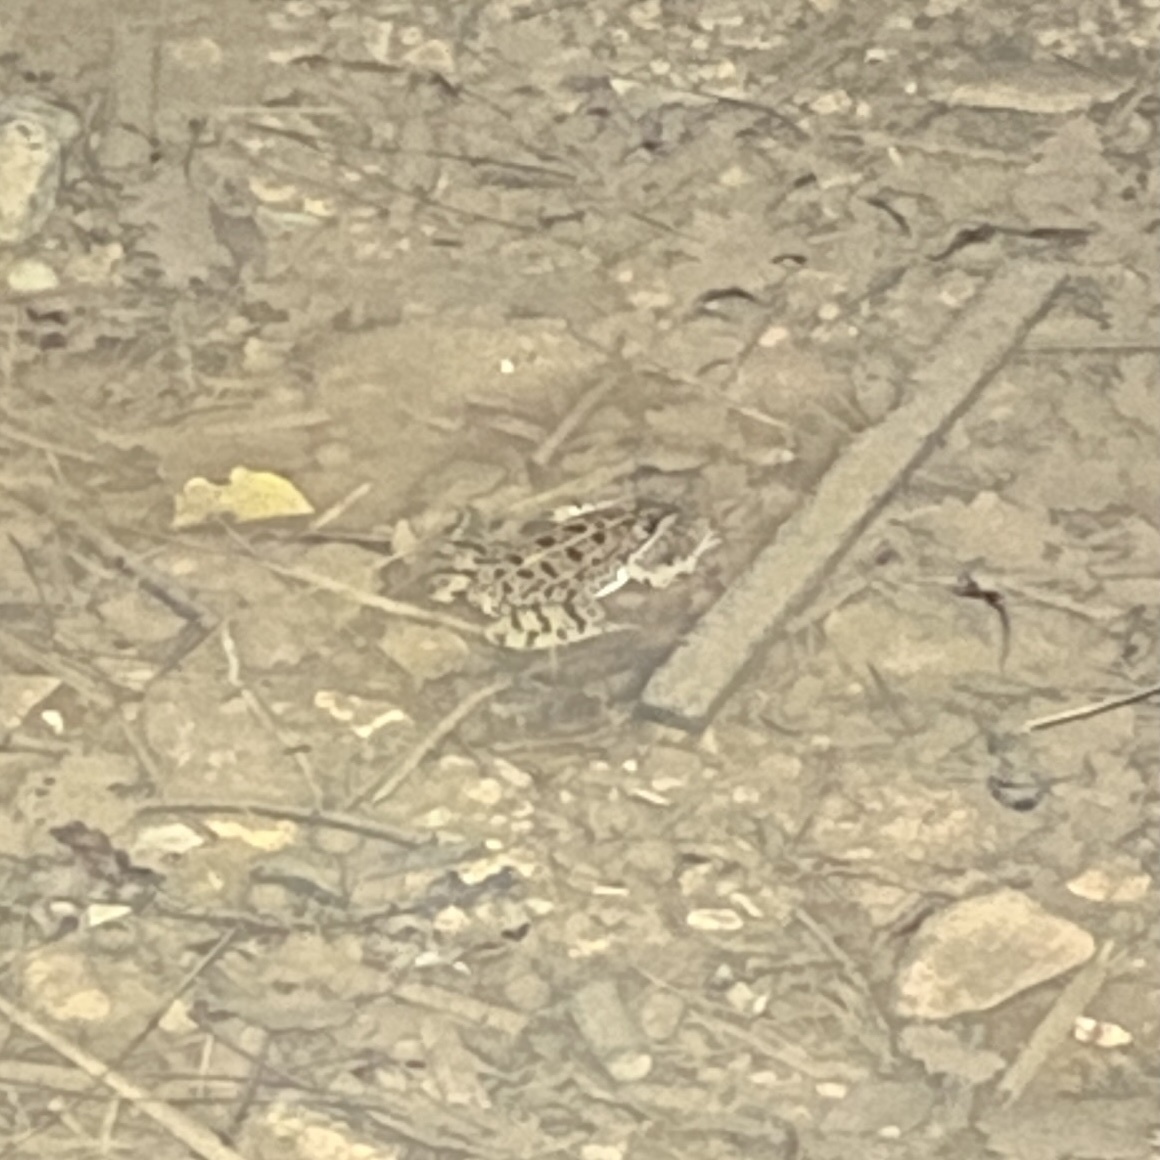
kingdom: Animalia
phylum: Chordata
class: Amphibia
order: Anura
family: Ranidae
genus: Pelophylax
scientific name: Pelophylax perezi
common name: Perez's frog
